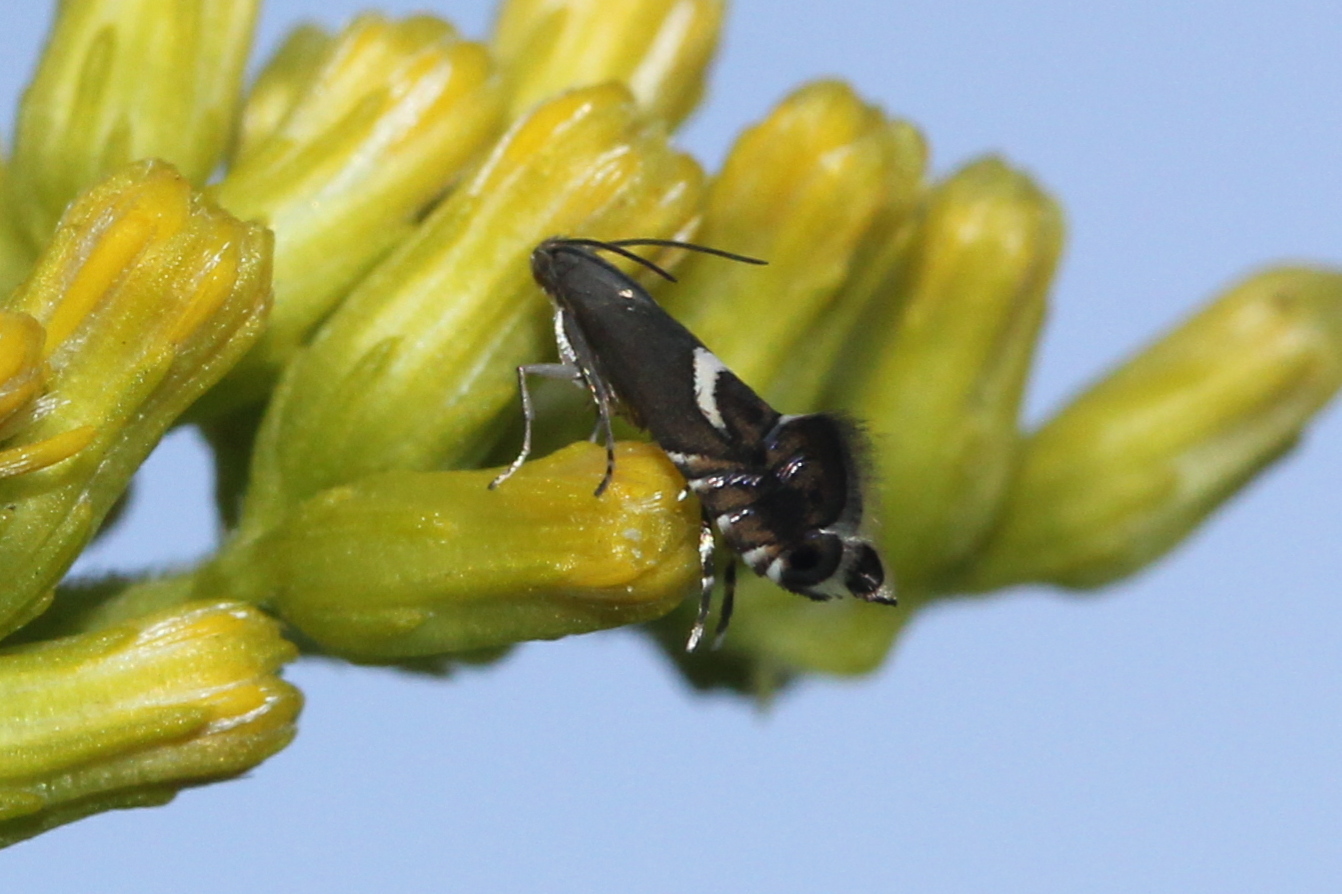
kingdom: Animalia
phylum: Arthropoda
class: Insecta
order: Lepidoptera
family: Glyphipterigidae
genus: Glyphipterix
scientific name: Glyphipterix Diploschizia impigritella
